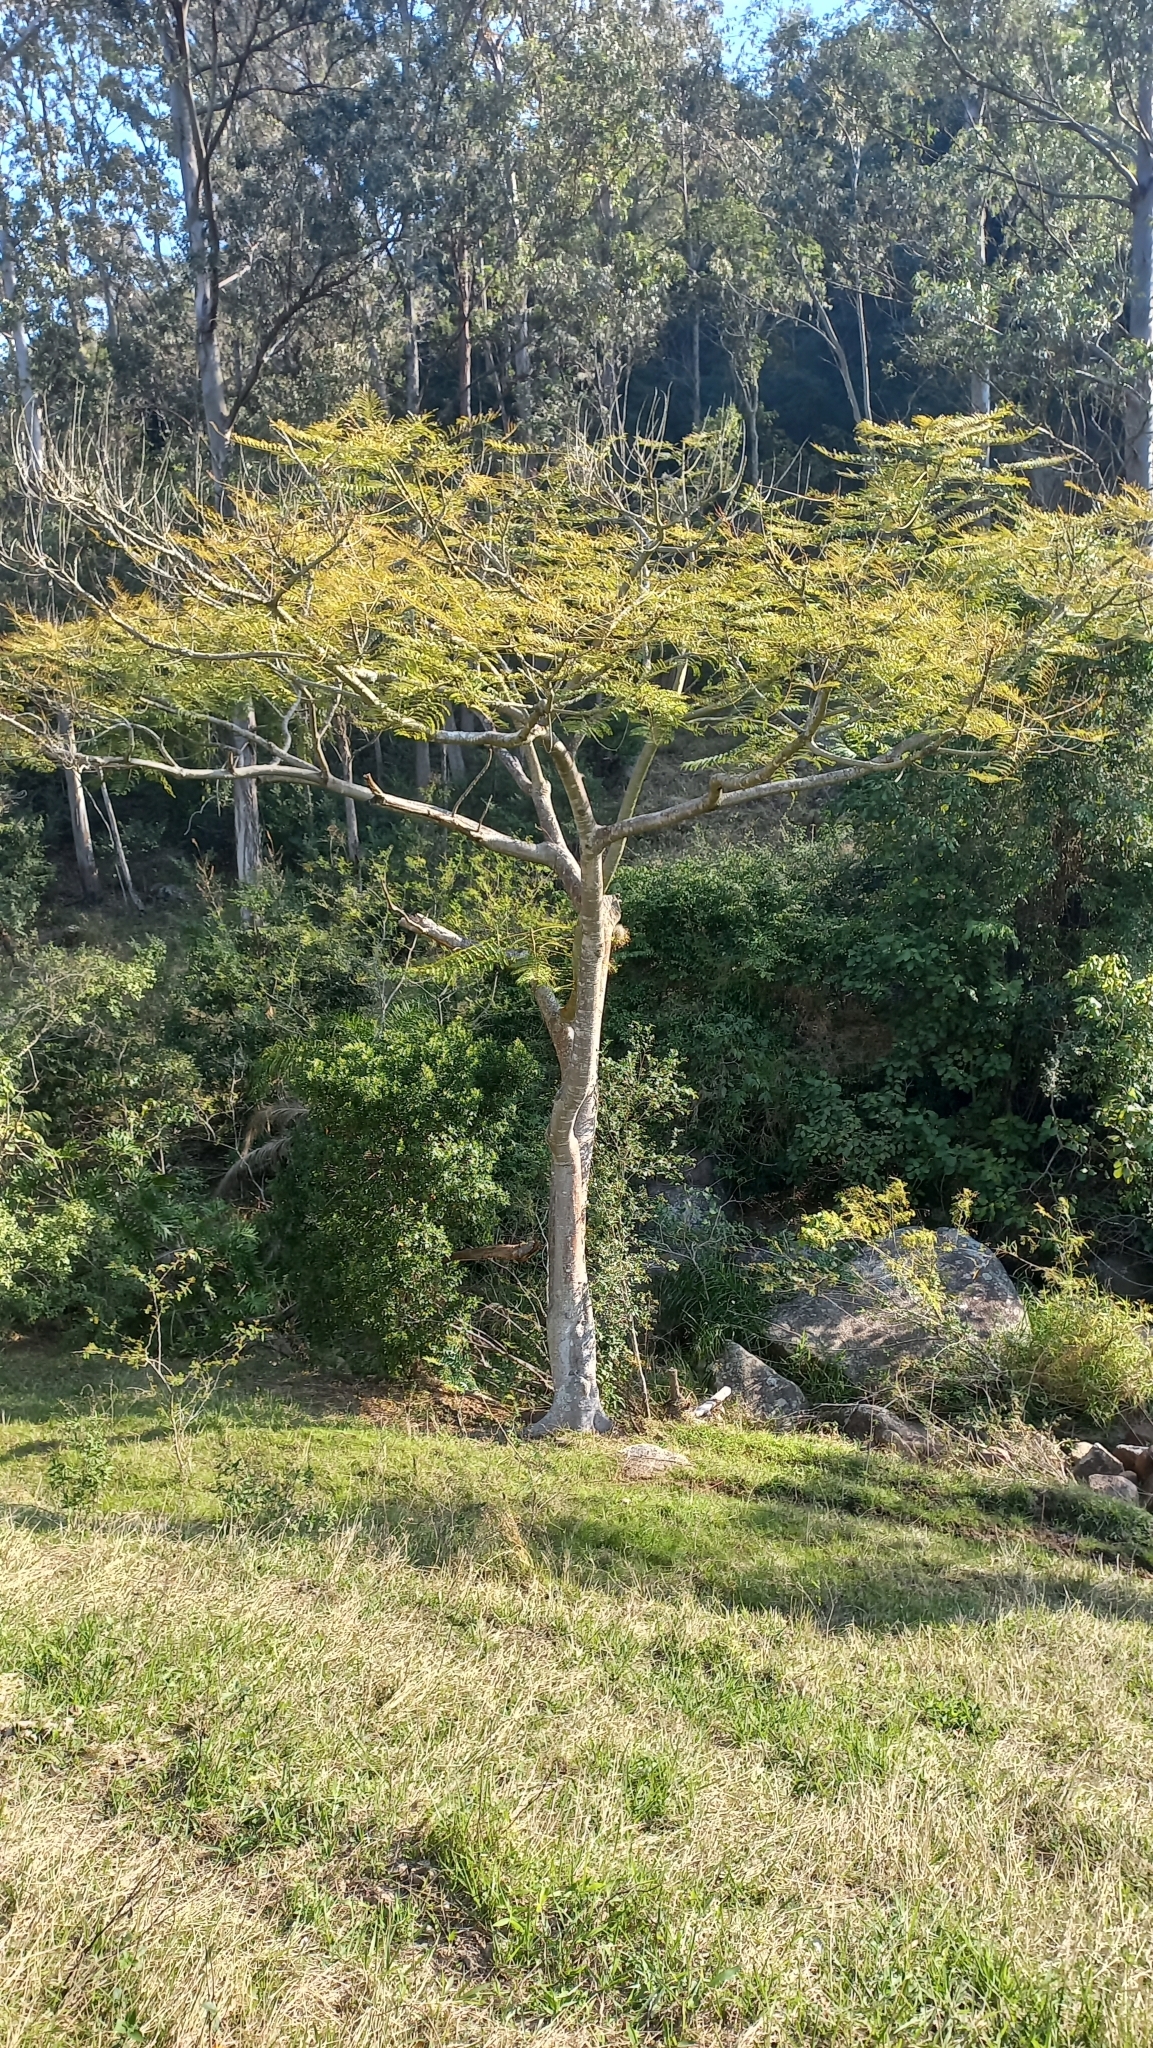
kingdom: Plantae
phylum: Tracheophyta
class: Magnoliopsida
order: Fabales
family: Fabaceae
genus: Schizolobium
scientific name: Schizolobium parahyba
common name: Brazilian firetree
